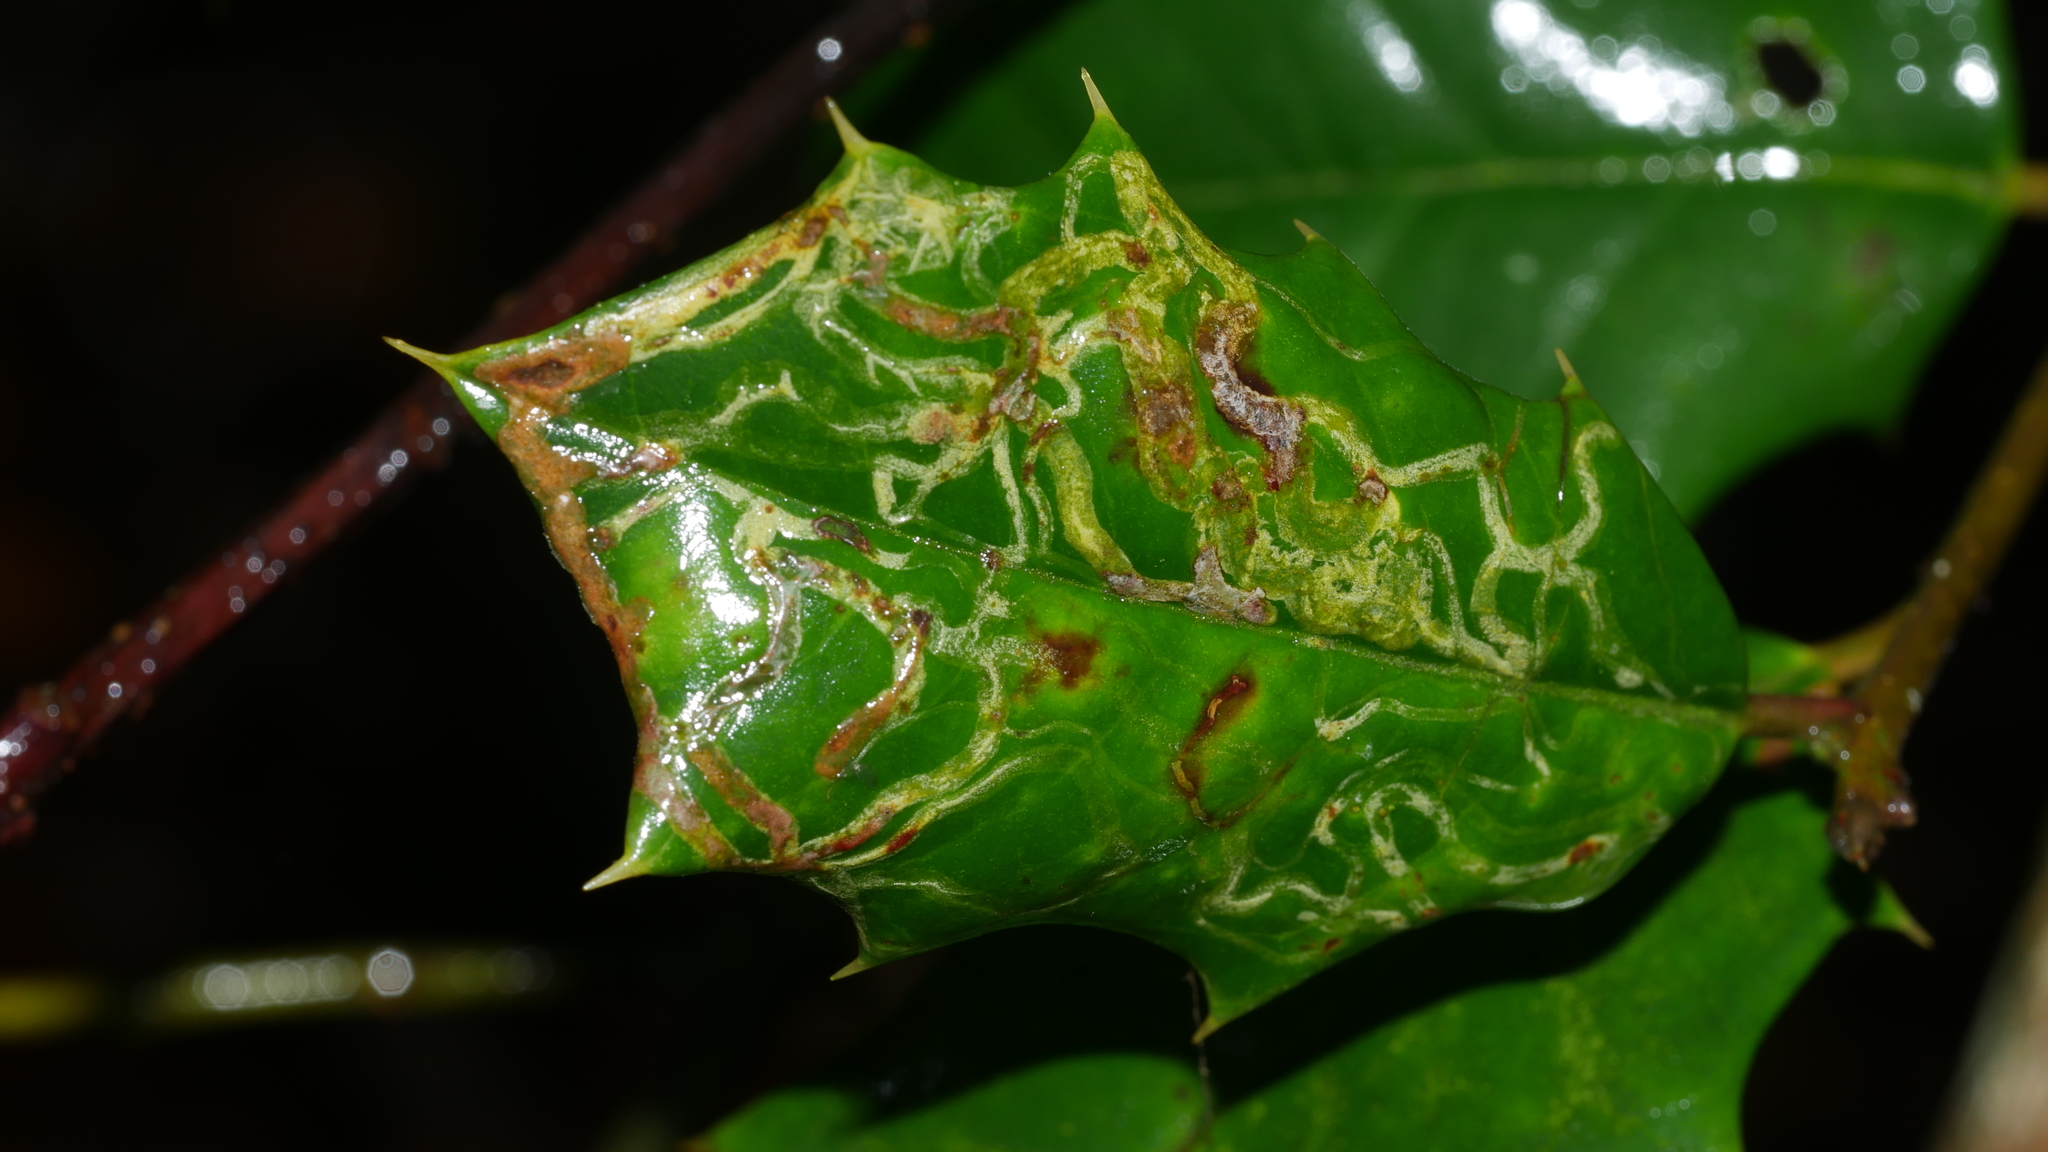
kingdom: Animalia
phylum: Arthropoda
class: Insecta
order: Diptera
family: Agromyzidae
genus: Phytomyza
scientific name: Phytomyza opacae
